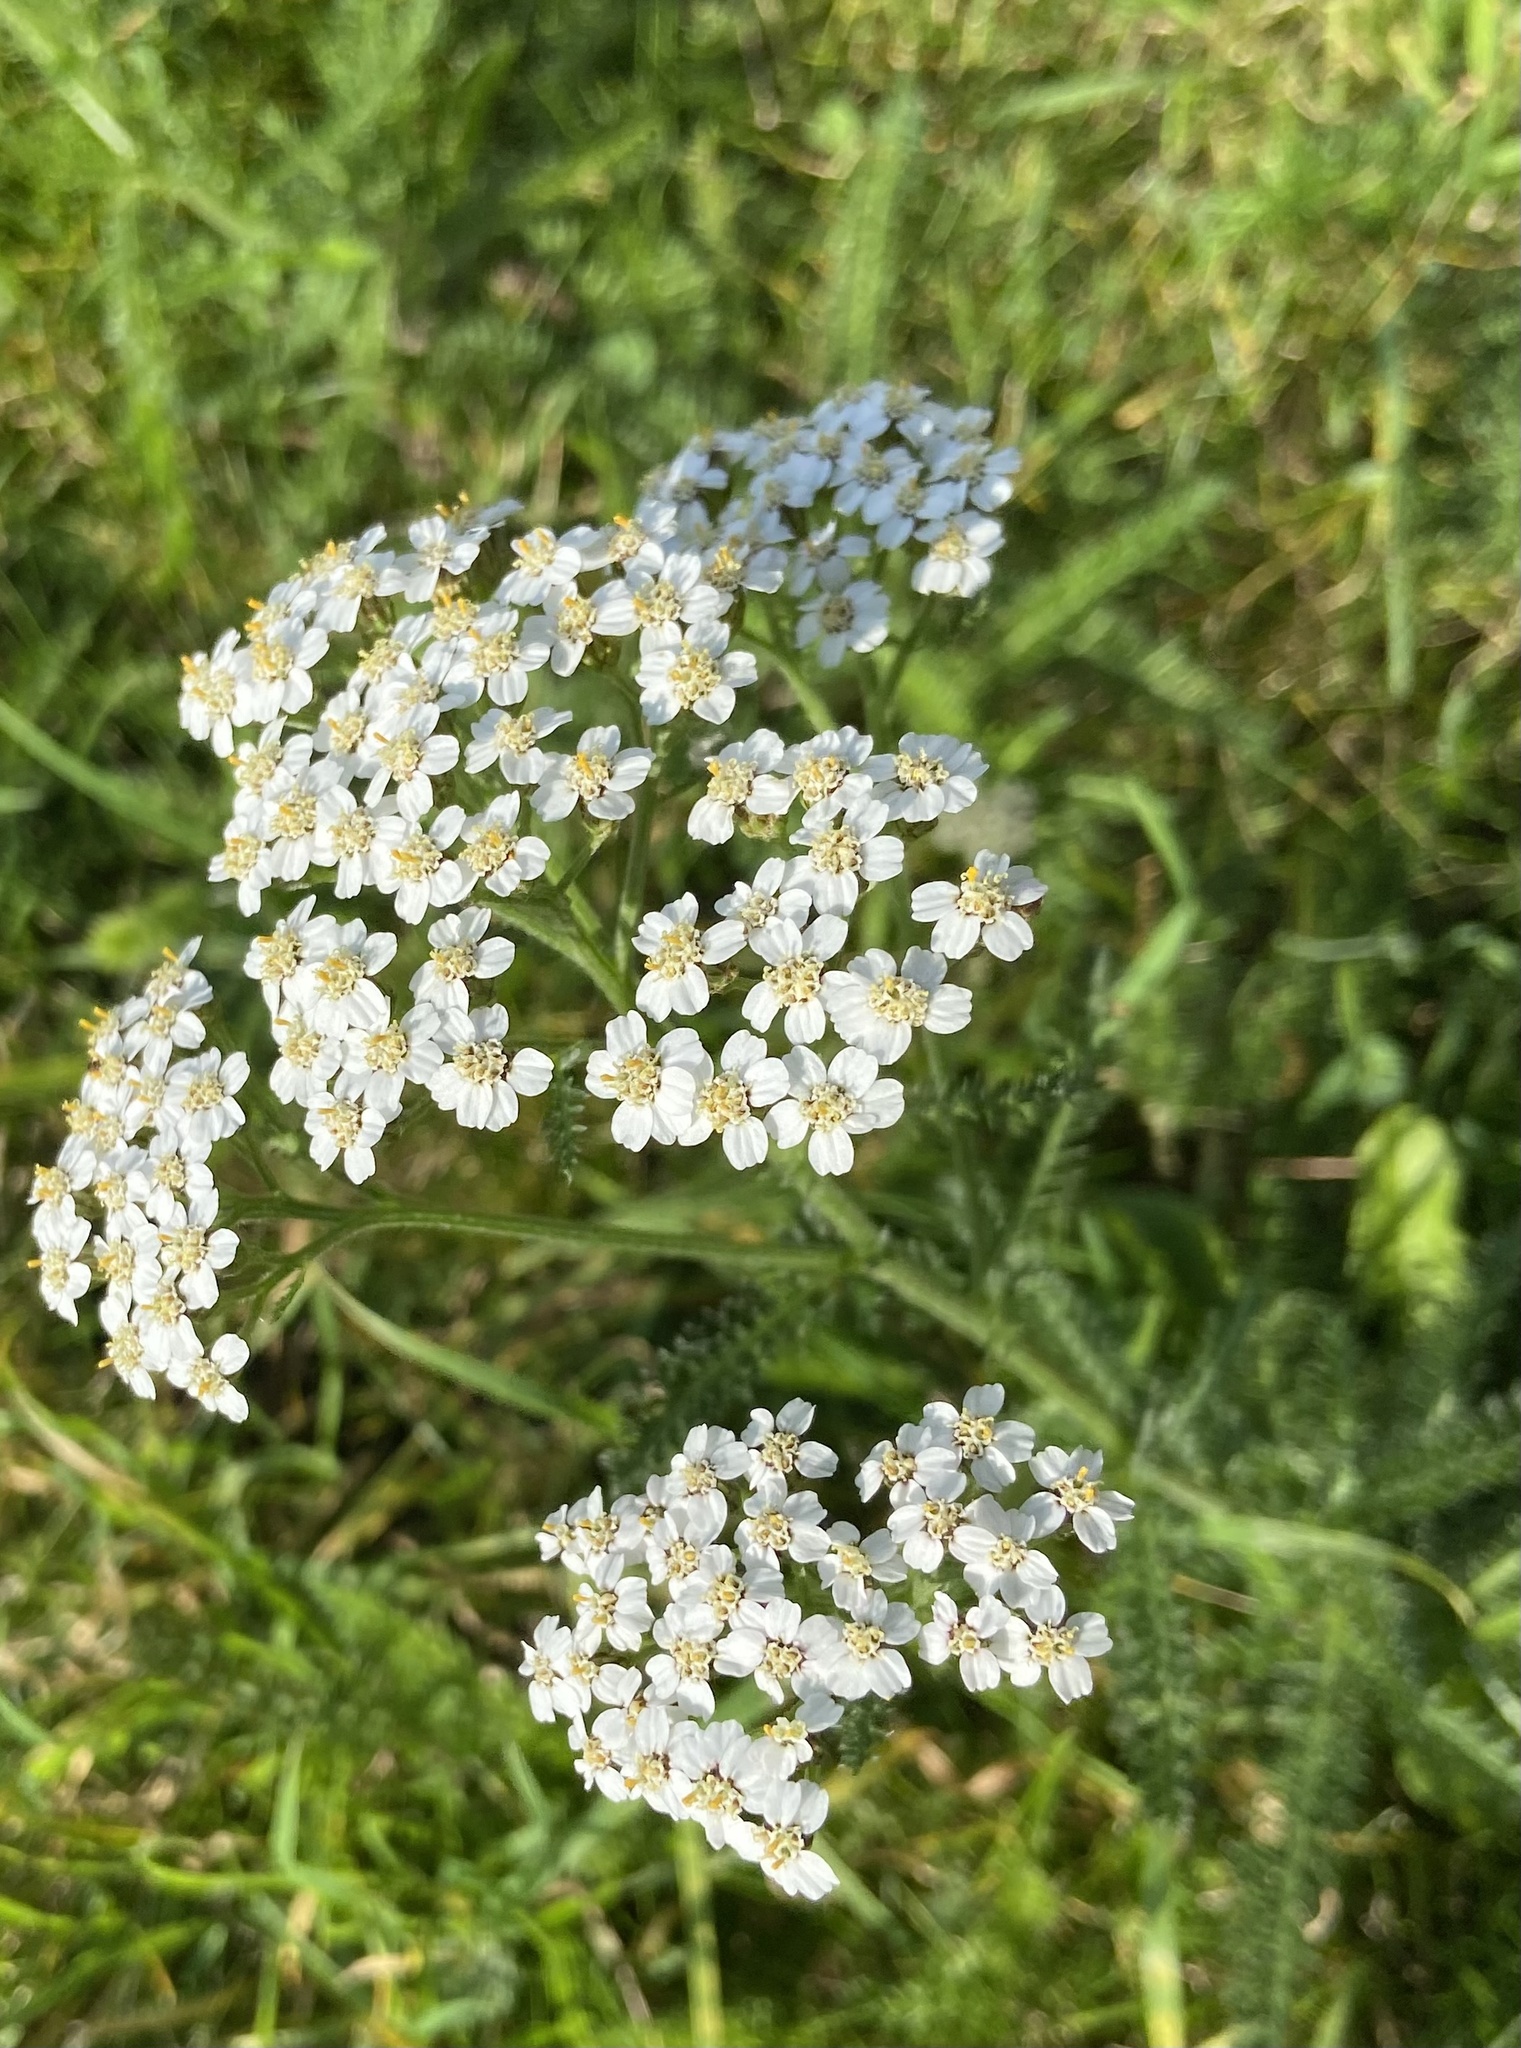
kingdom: Plantae
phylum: Tracheophyta
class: Magnoliopsida
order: Asterales
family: Asteraceae
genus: Achillea
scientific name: Achillea millefolium
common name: Yarrow
